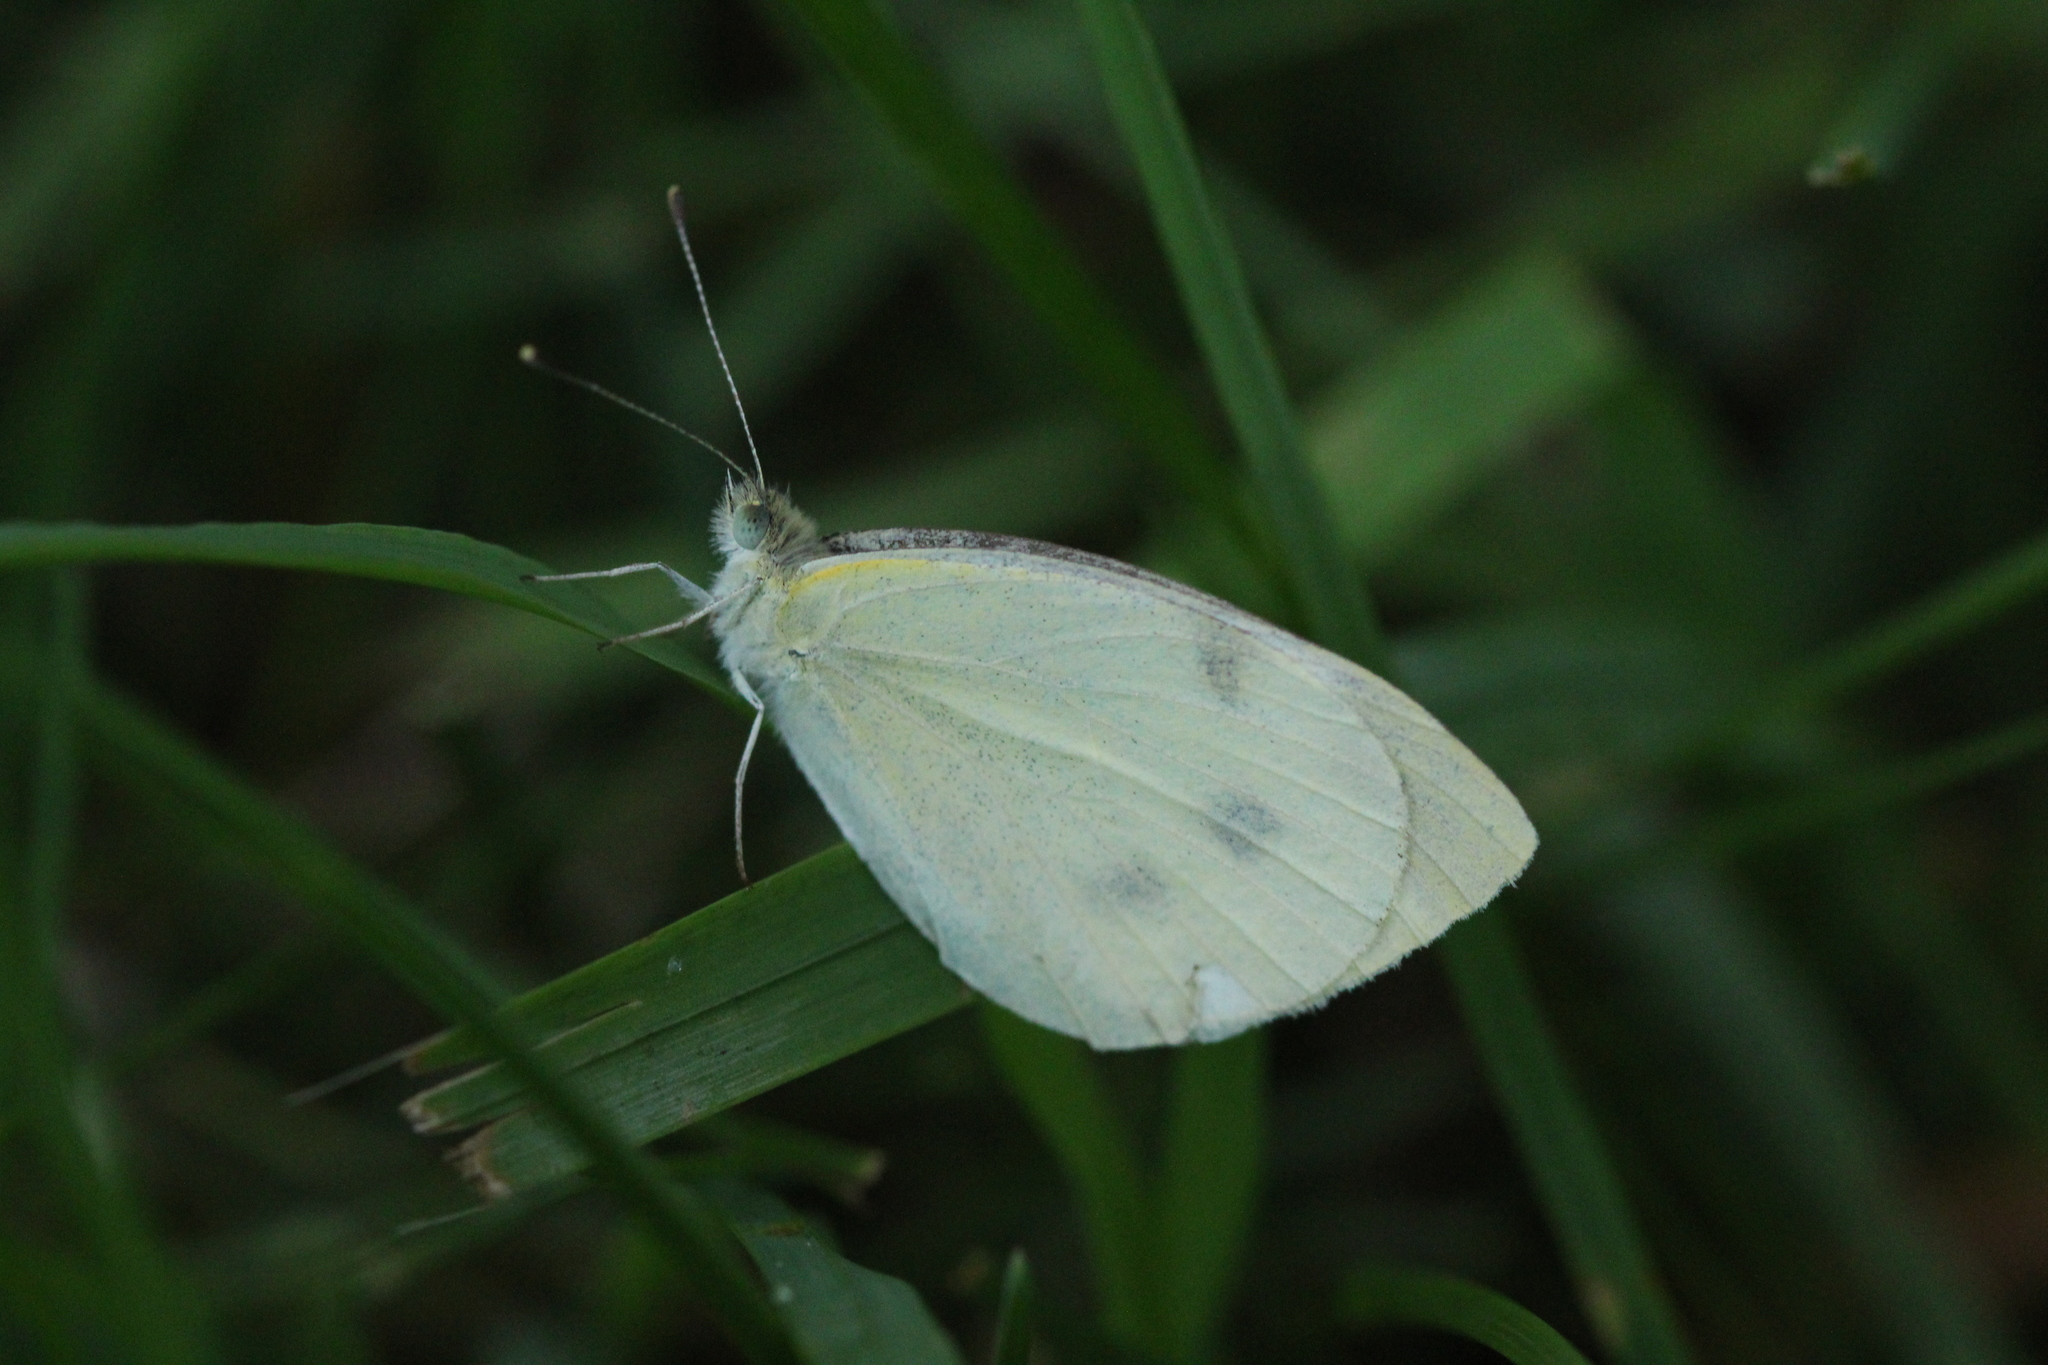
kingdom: Animalia
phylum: Arthropoda
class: Insecta
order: Lepidoptera
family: Pieridae
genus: Pieris
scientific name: Pieris rapae
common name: Small white
